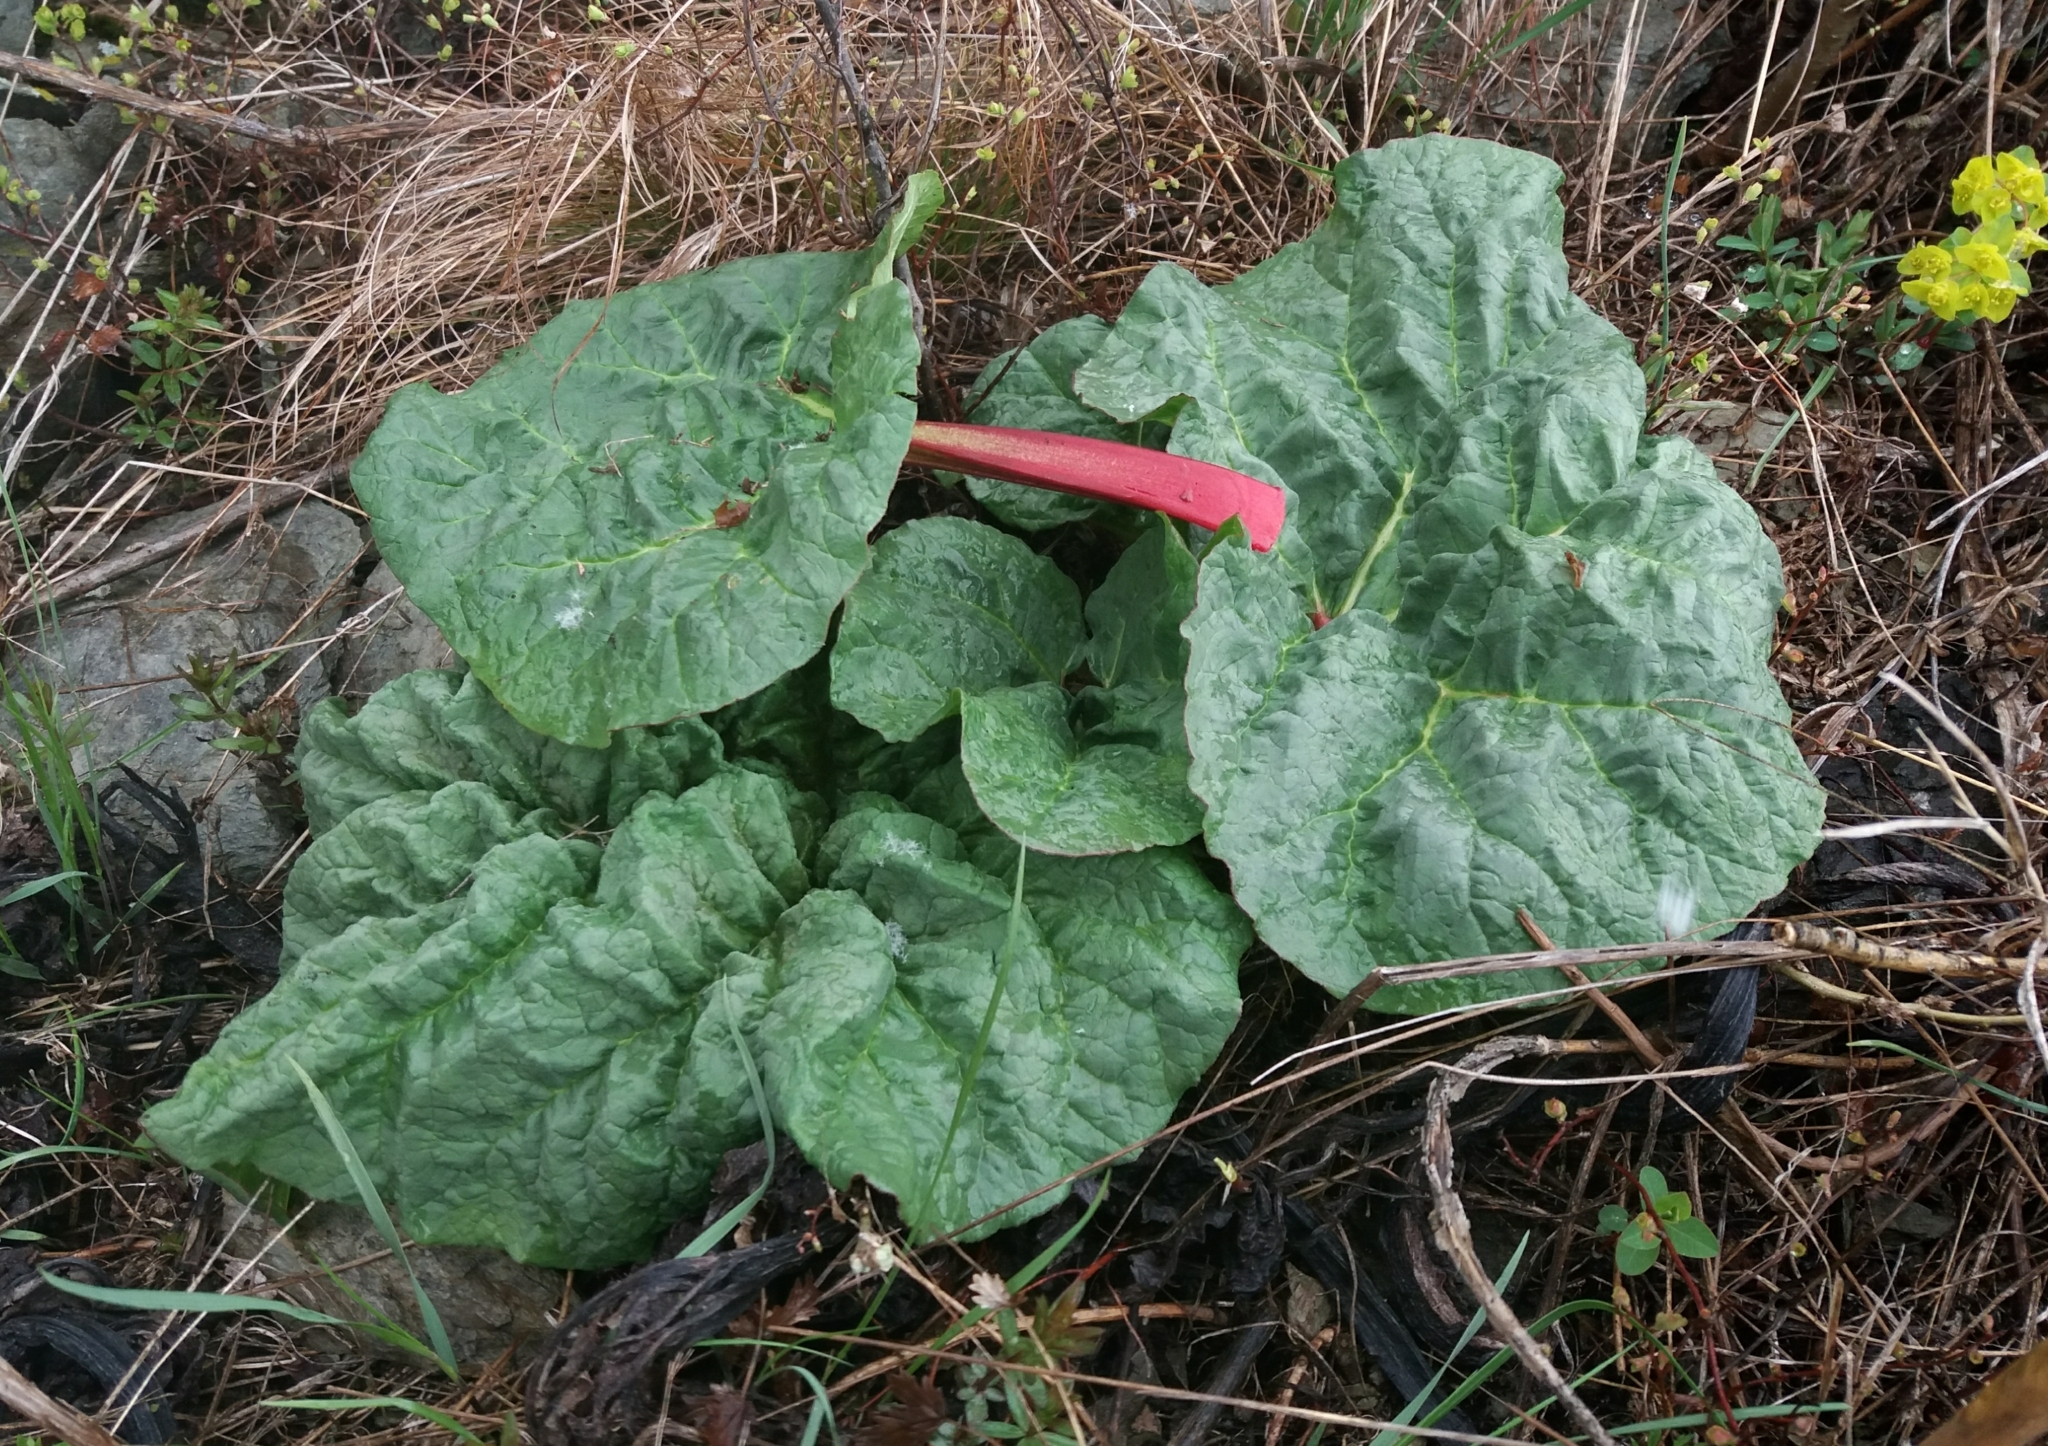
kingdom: Plantae
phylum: Tracheophyta
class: Magnoliopsida
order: Caryophyllales
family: Polygonaceae
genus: Rheum
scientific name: Rheum compactum
